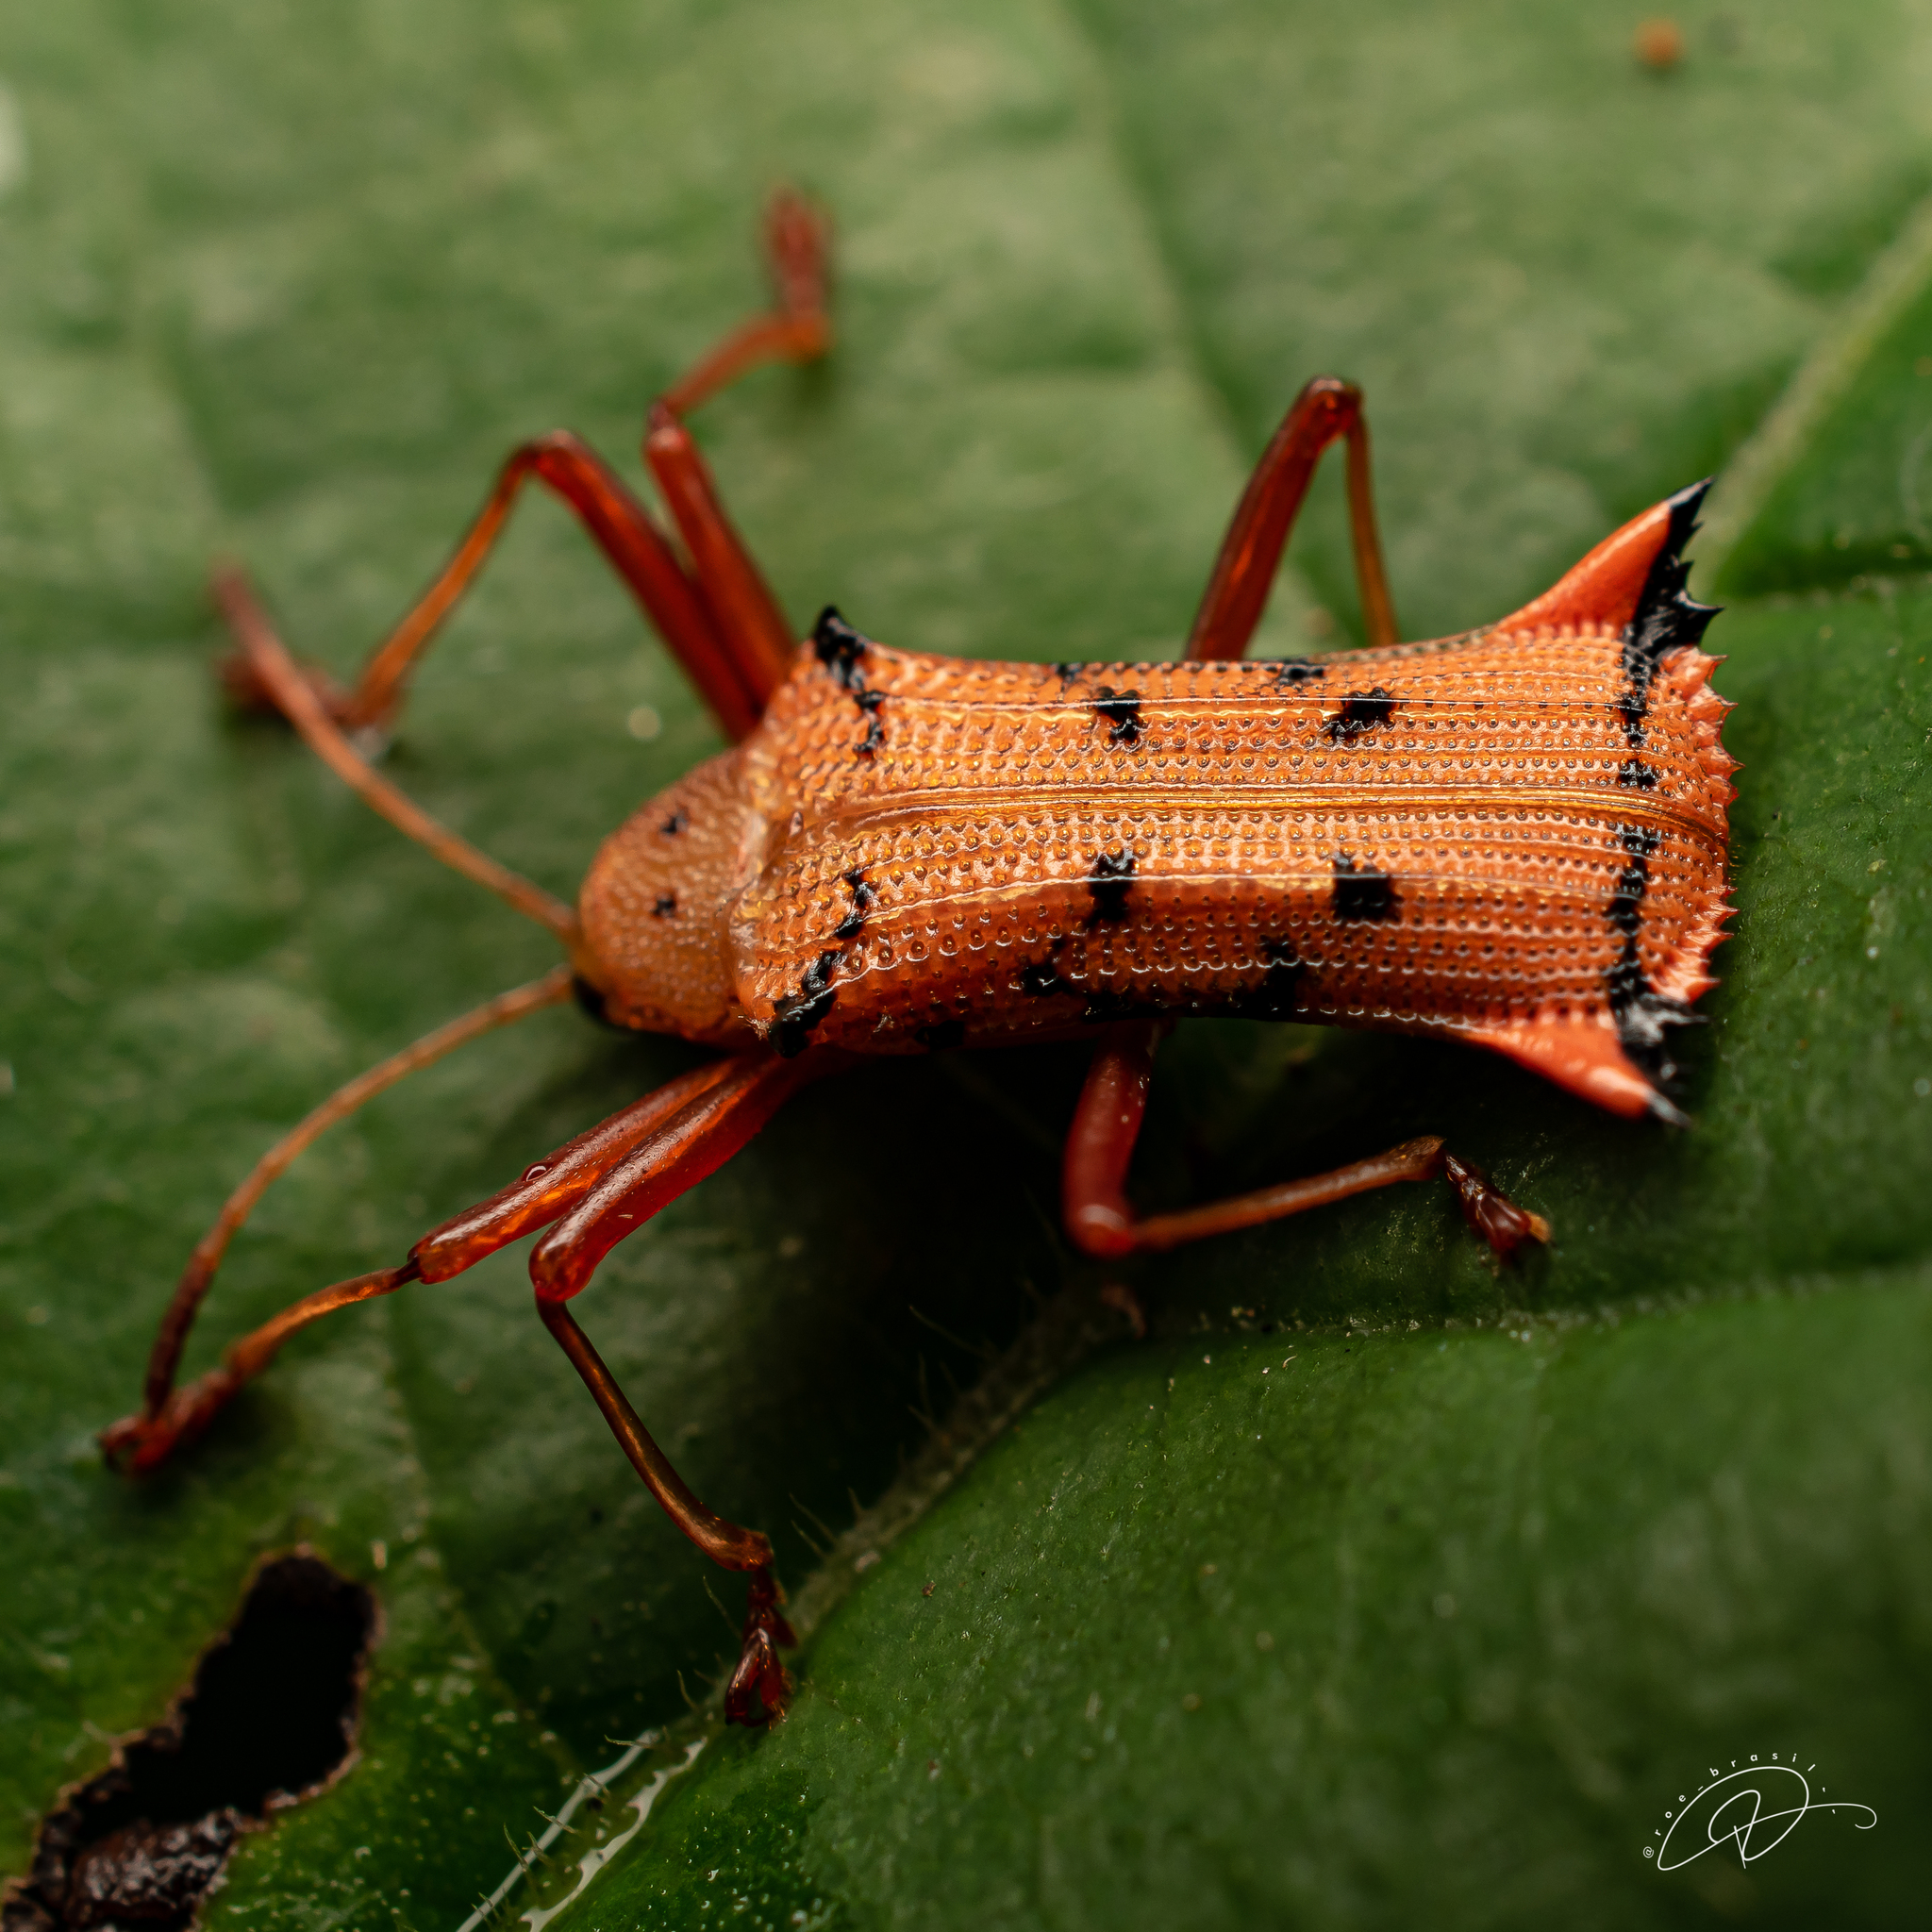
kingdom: Animalia
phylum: Arthropoda
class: Insecta
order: Coleoptera
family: Chrysomelidae
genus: Sceloenopla
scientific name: Sceloenopla sparsa
